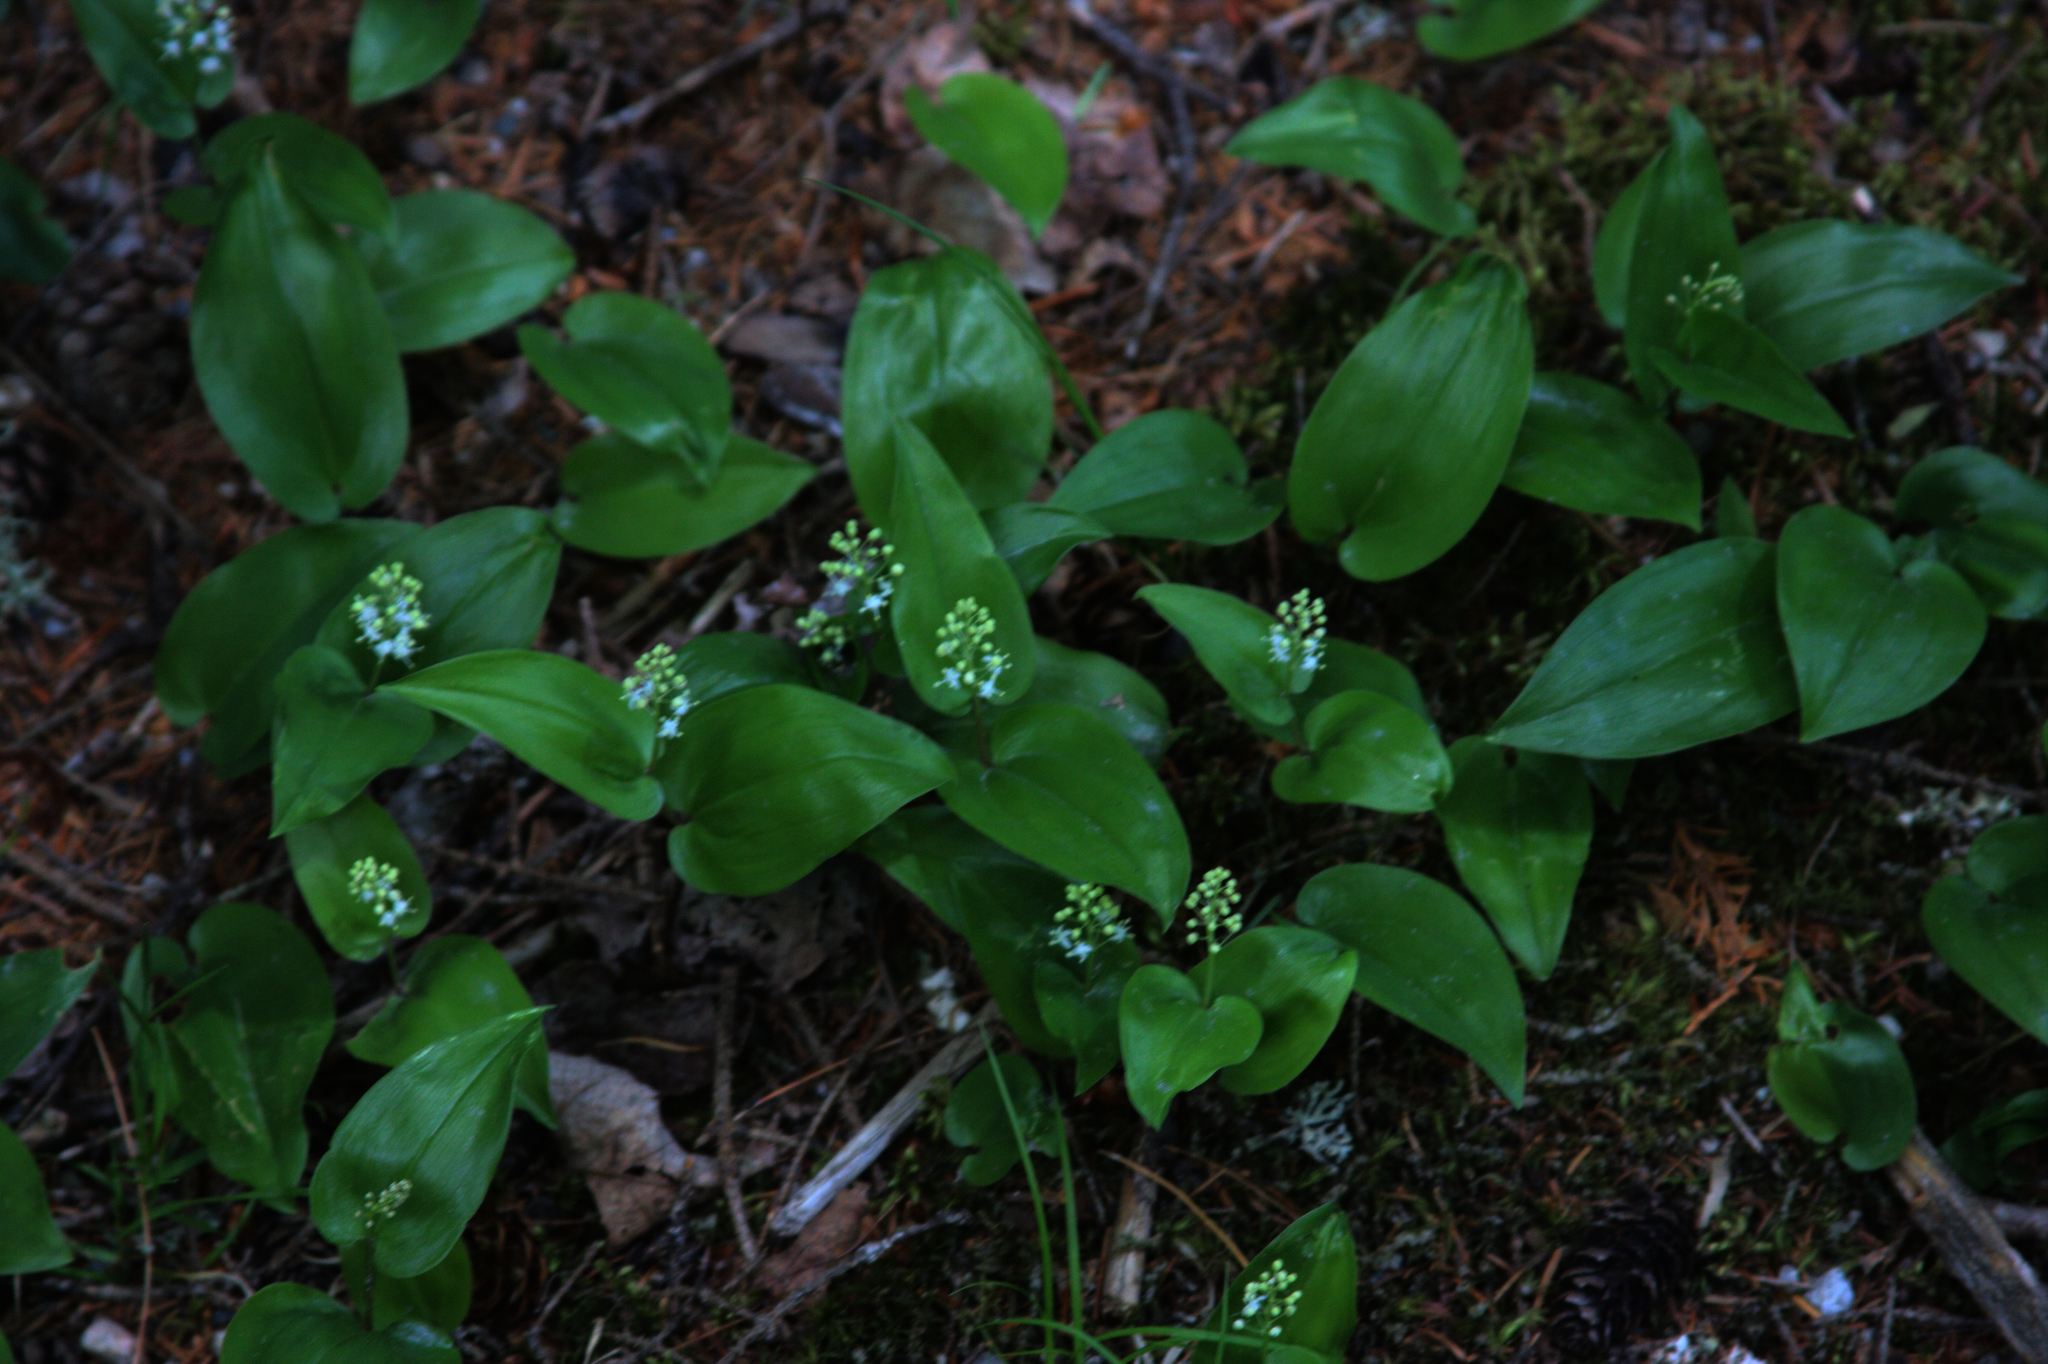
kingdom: Plantae
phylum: Tracheophyta
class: Liliopsida
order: Asparagales
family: Asparagaceae
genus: Maianthemum
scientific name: Maianthemum canadense
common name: False lily-of-the-valley
